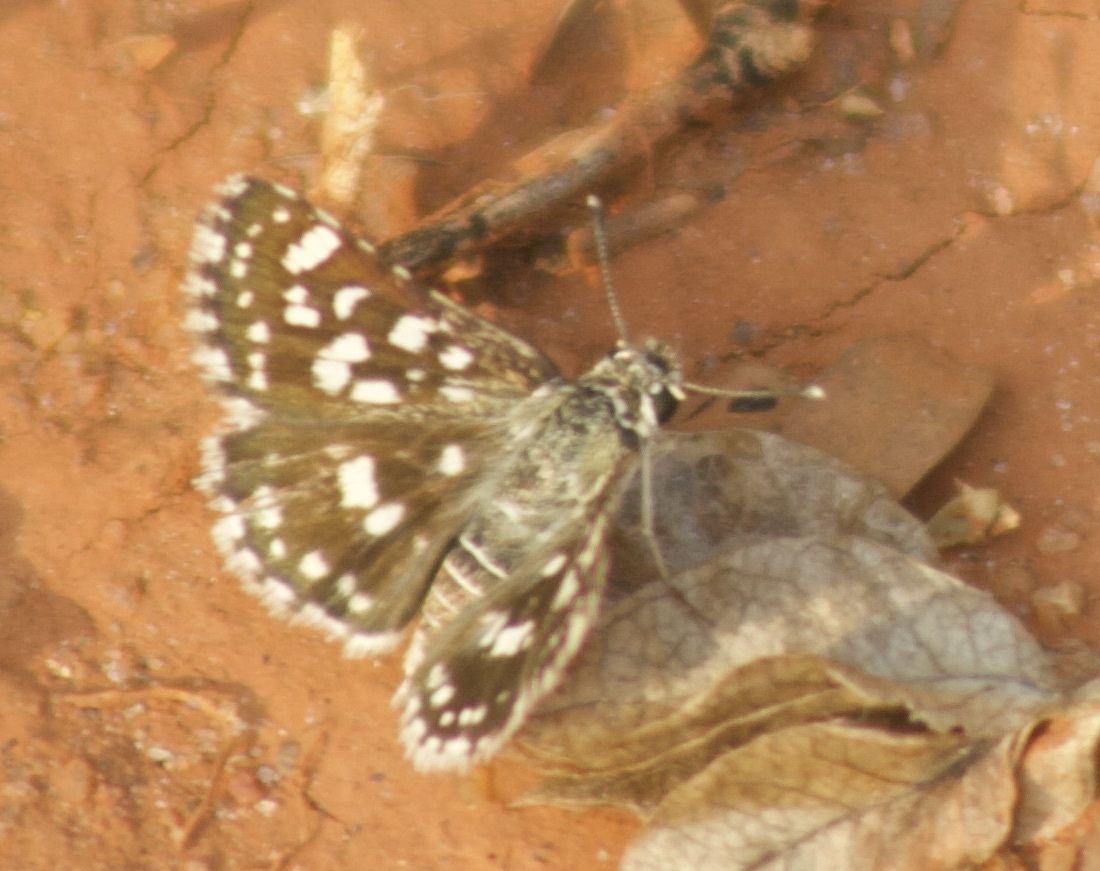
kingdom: Animalia
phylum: Arthropoda
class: Insecta
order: Lepidoptera
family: Hesperiidae
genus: Spialia
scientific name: Spialia galba
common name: Indian skipper
